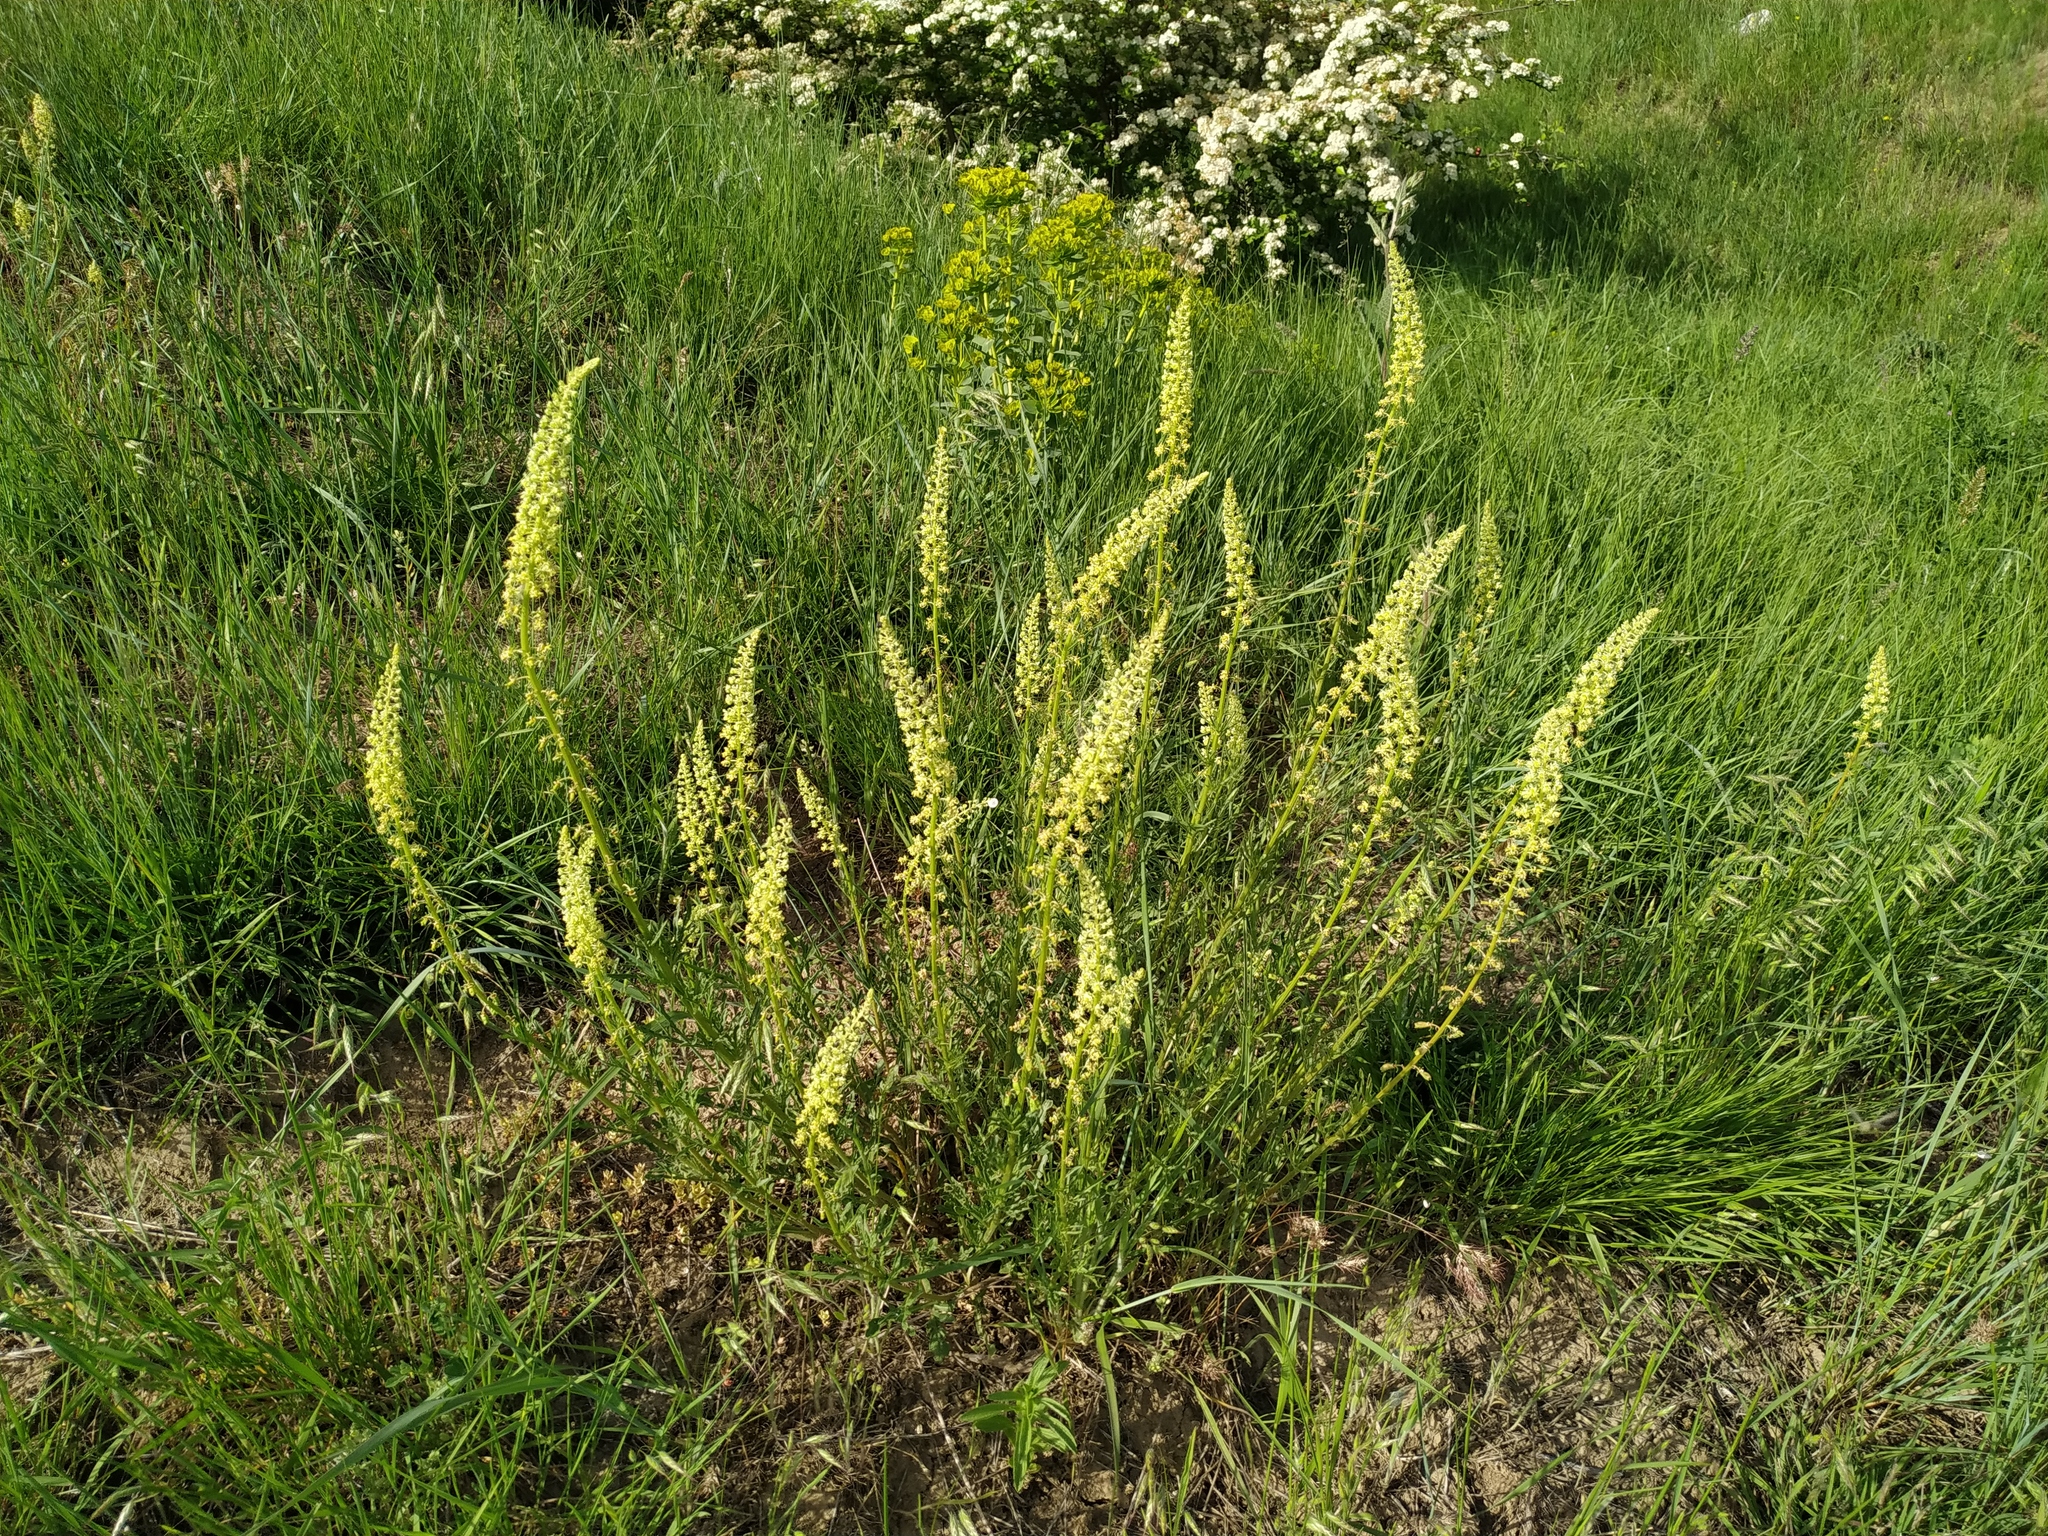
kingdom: Plantae
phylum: Tracheophyta
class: Magnoliopsida
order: Brassicales
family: Resedaceae
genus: Reseda
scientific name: Reseda lutea
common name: Wild mignonette
